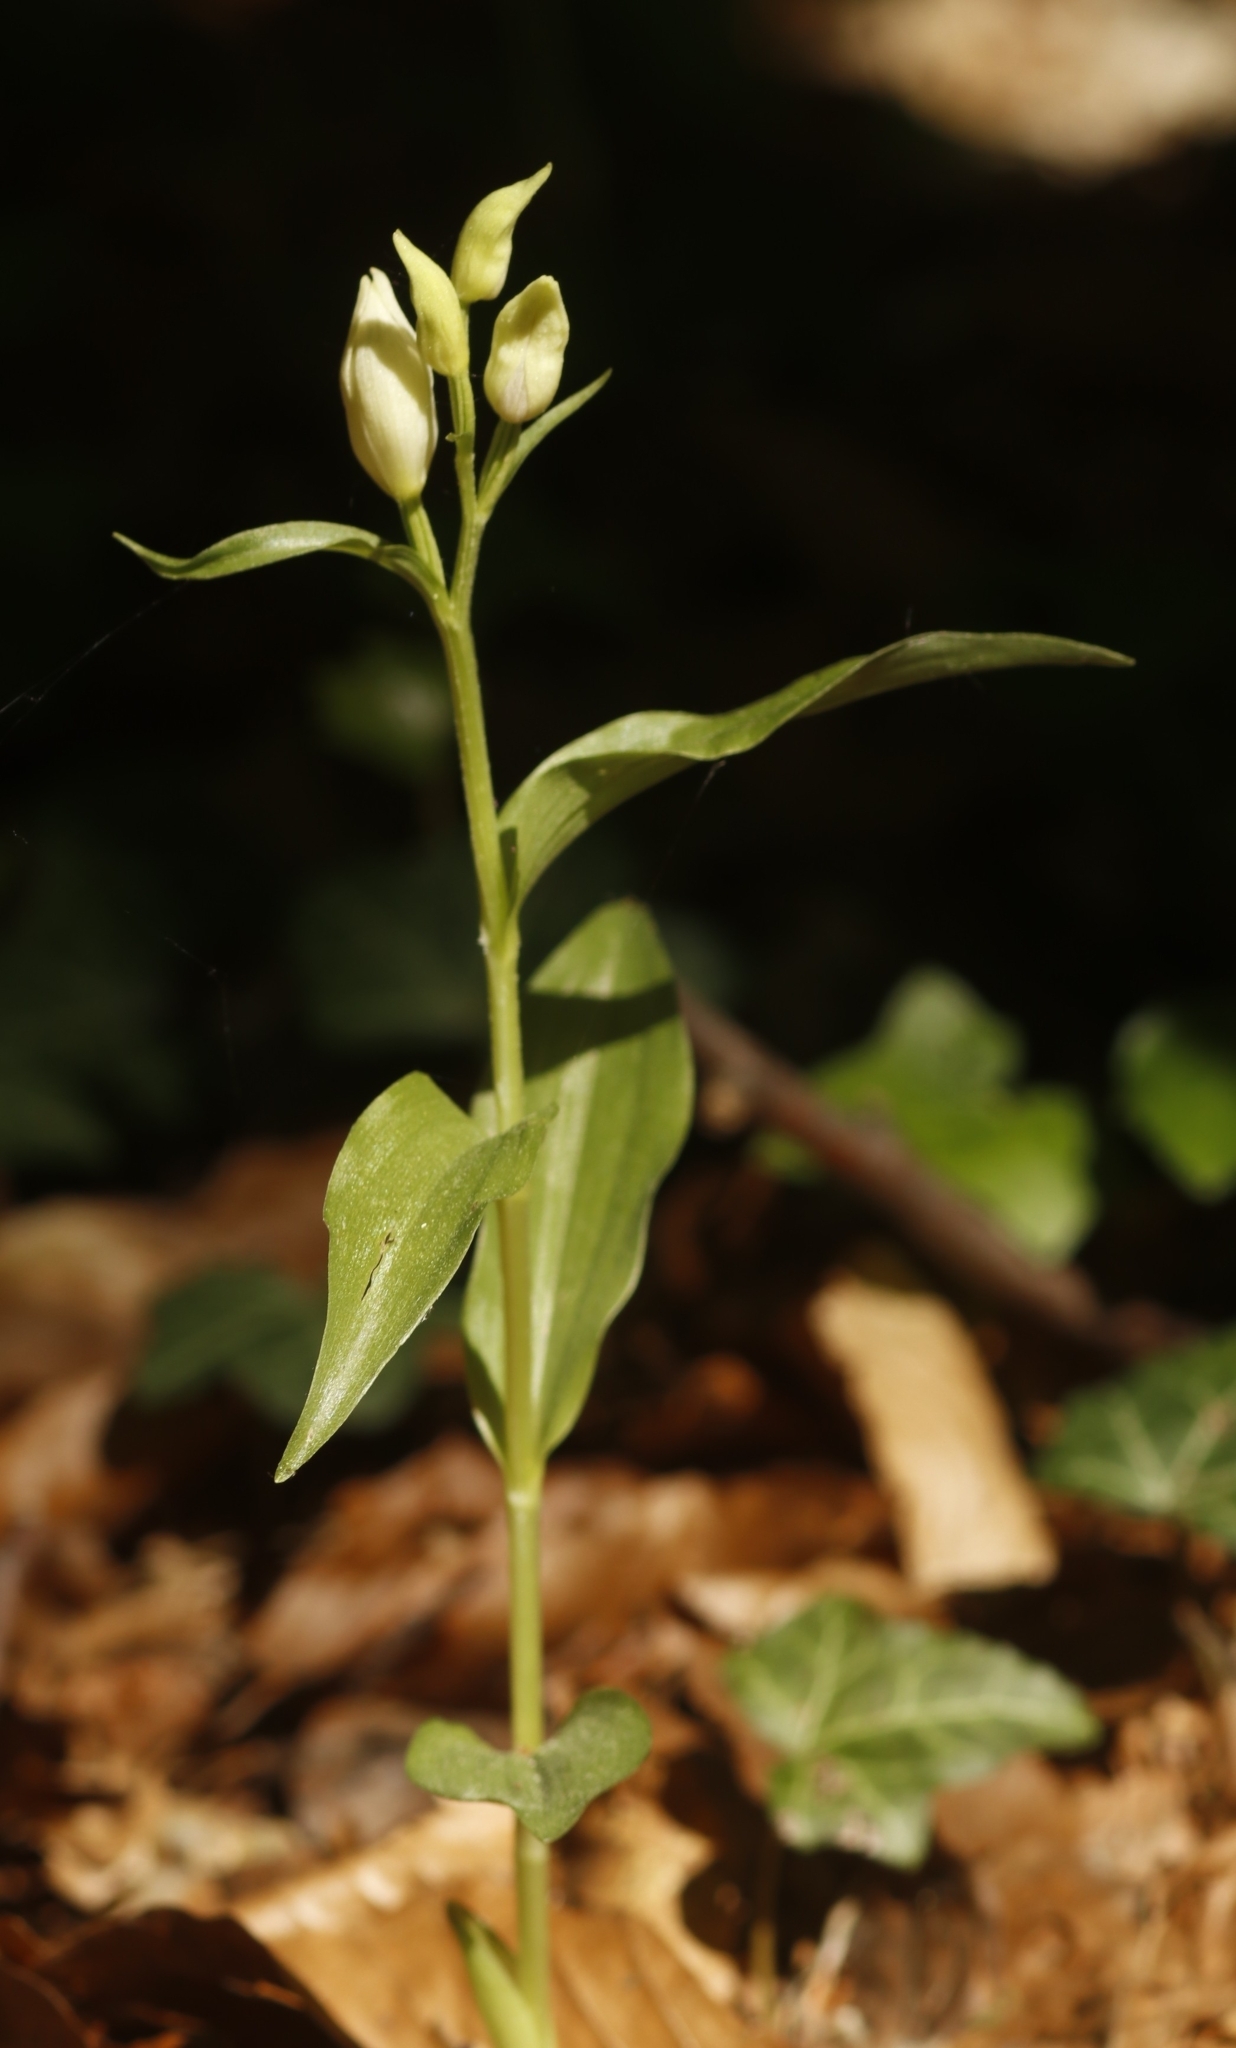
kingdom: Plantae
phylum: Tracheophyta
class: Liliopsida
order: Asparagales
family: Orchidaceae
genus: Cephalanthera
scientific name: Cephalanthera damasonium
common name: White helleborine
